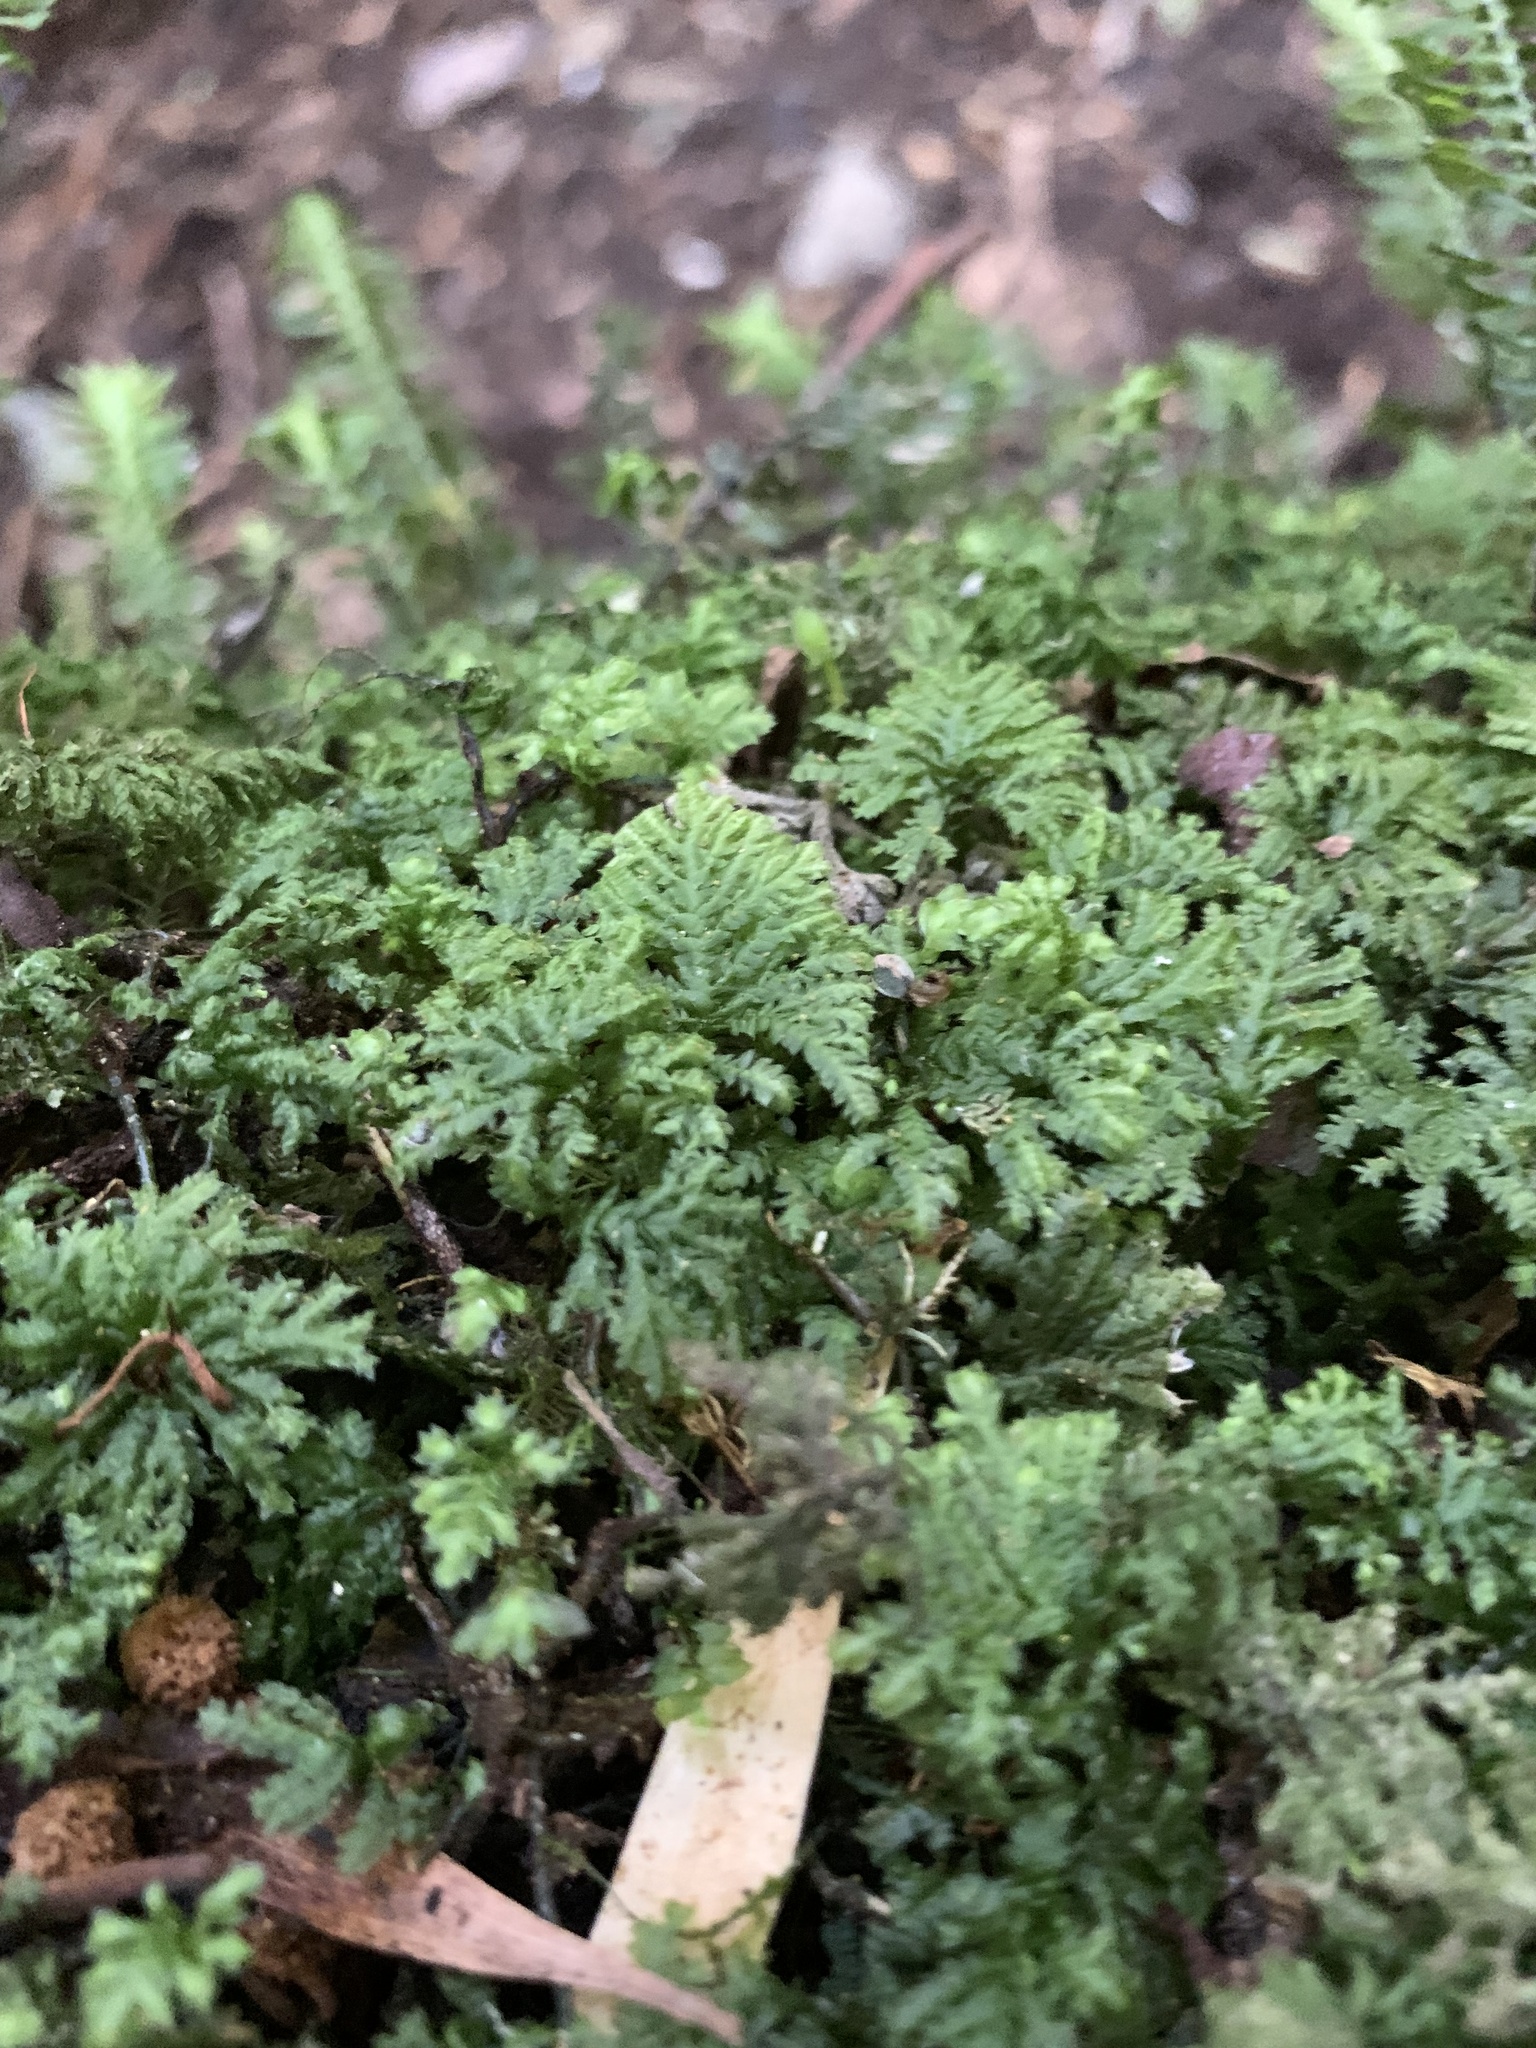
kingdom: Plantae
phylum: Bryophyta
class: Bryopsida
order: Hypopterygiales
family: Hypopterygiaceae
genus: Hypopterygium
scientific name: Hypopterygium didictyon
